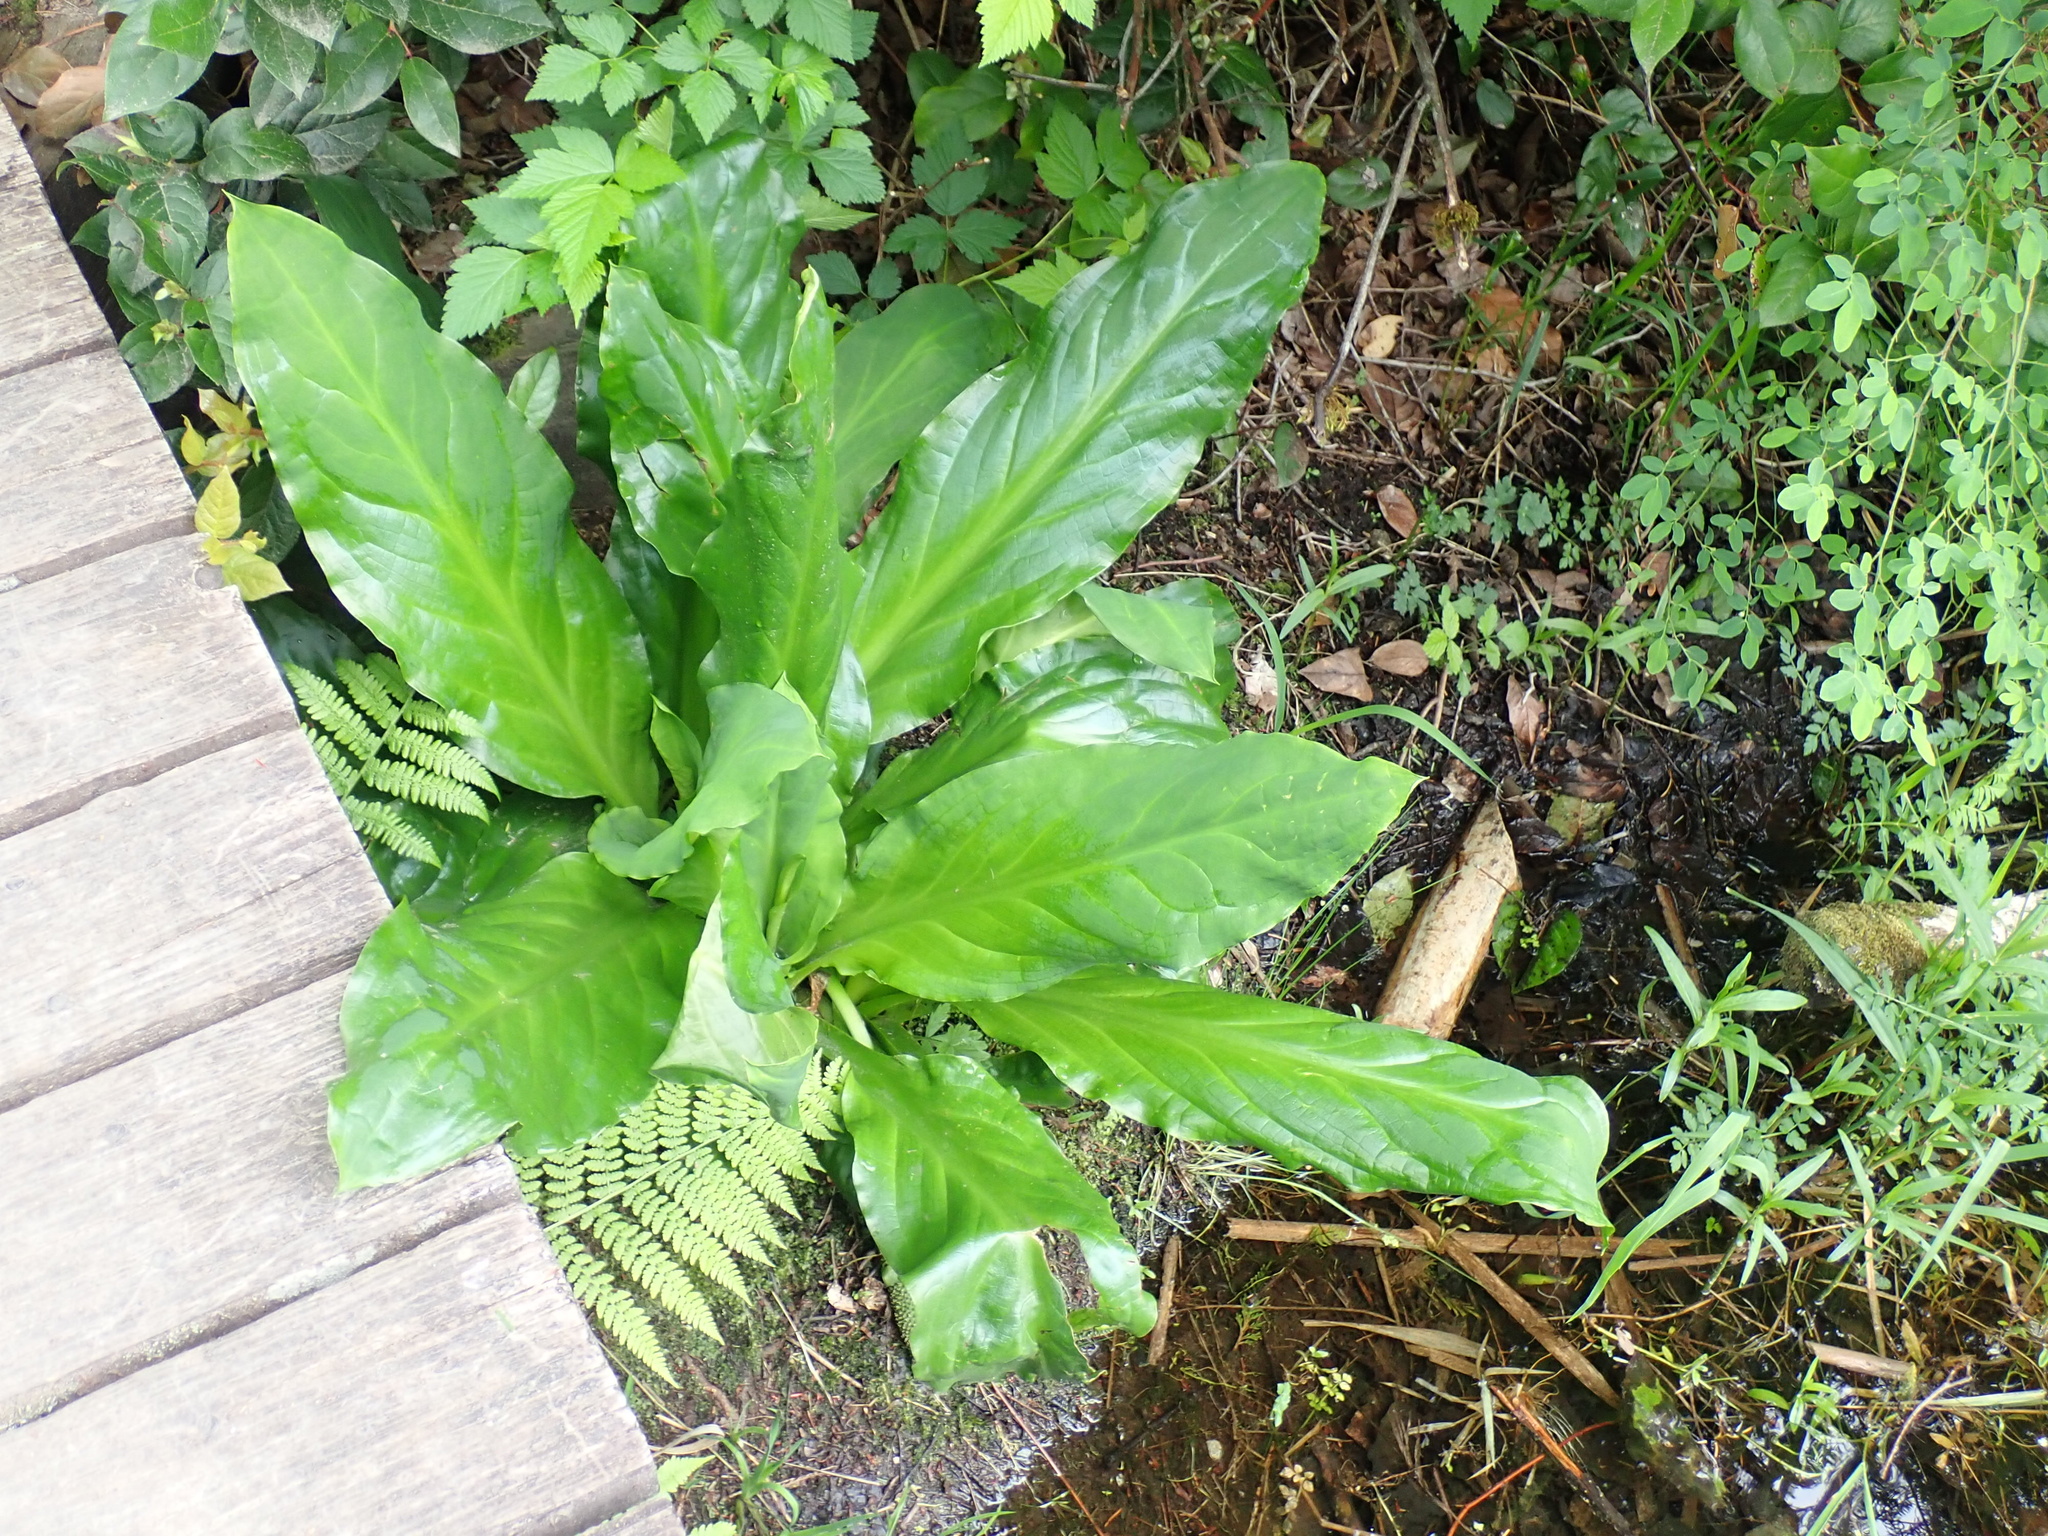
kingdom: Plantae
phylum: Tracheophyta
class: Liliopsida
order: Alismatales
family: Araceae
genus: Lysichiton
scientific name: Lysichiton americanus
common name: American skunk cabbage
